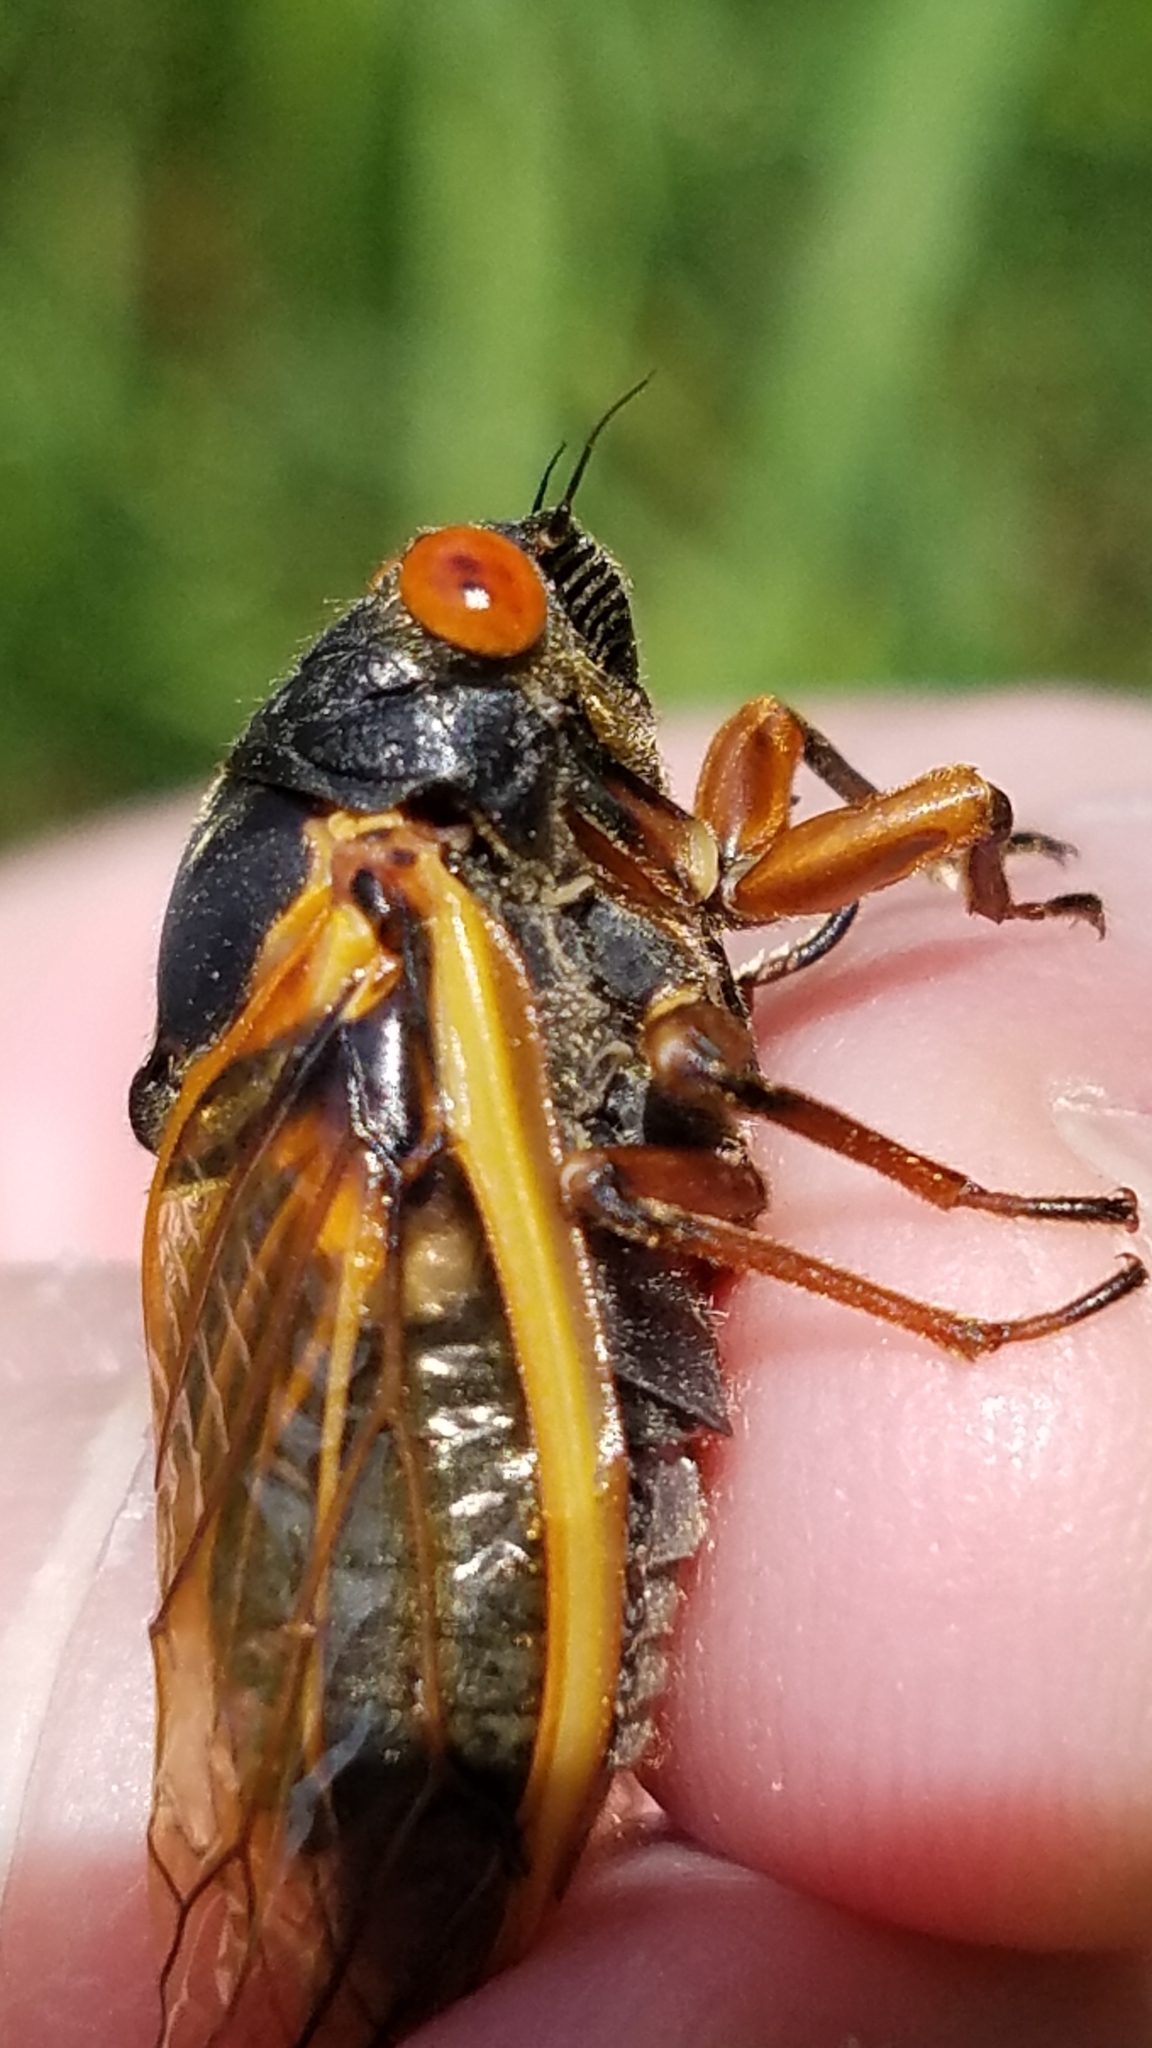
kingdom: Animalia
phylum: Arthropoda
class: Insecta
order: Hemiptera
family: Cicadidae
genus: Magicicada
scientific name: Magicicada cassini
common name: Cassin's 17-year cicada
